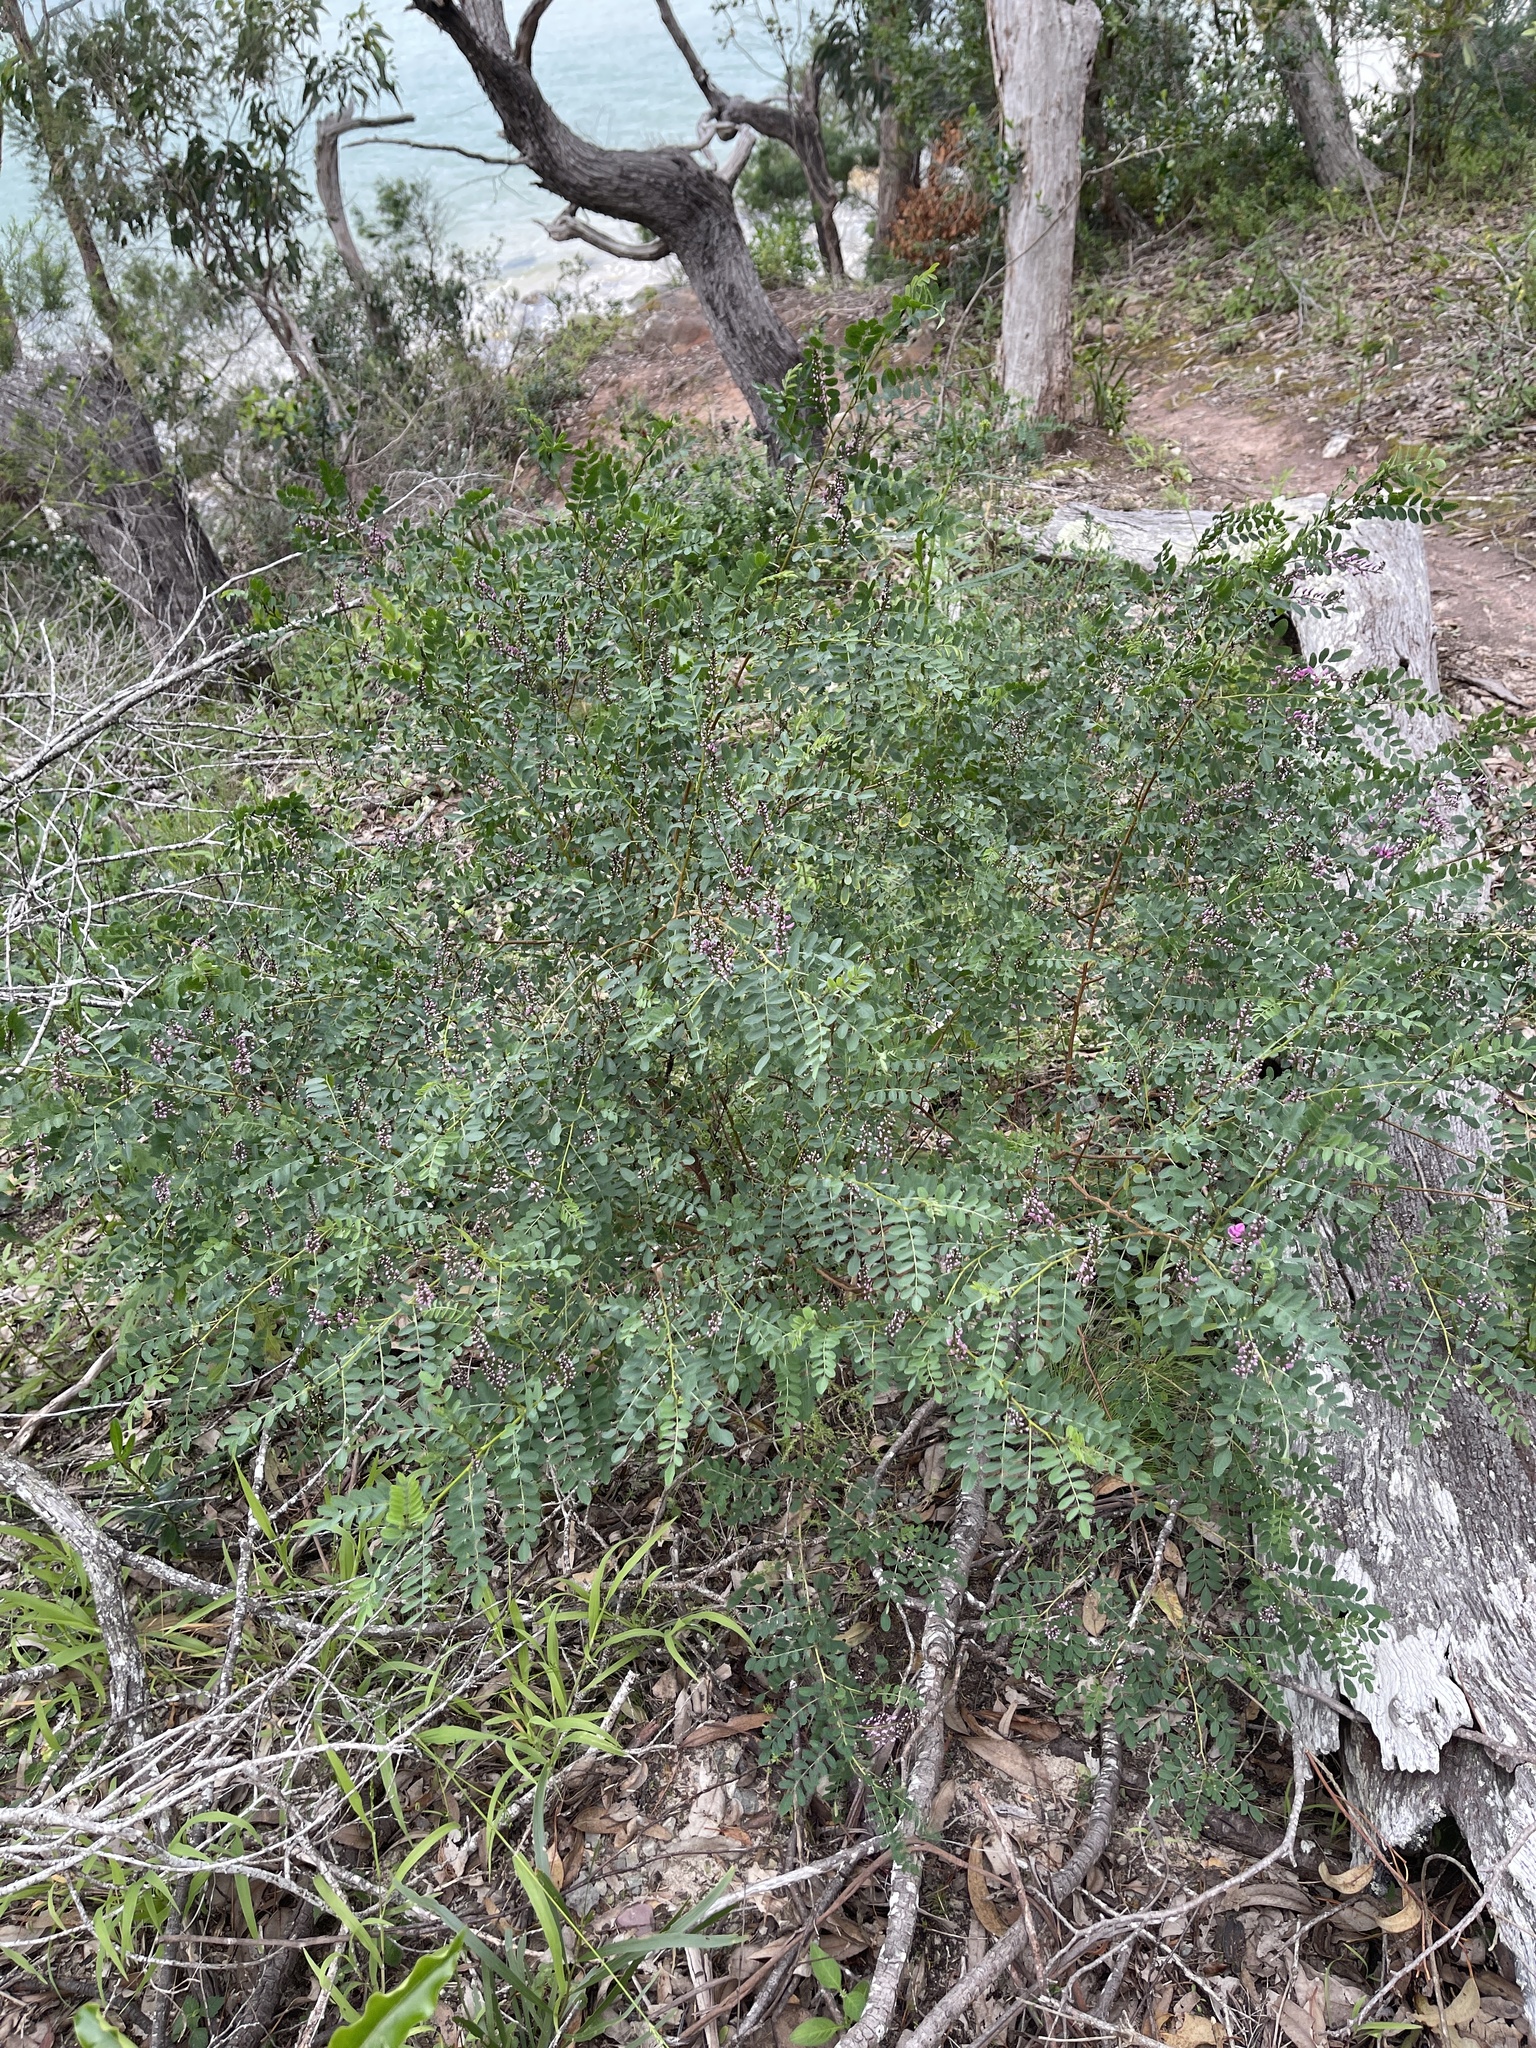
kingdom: Plantae
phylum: Tracheophyta
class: Magnoliopsida
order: Fabales
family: Fabaceae
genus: Indigofera
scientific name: Indigofera australis
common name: Australian indigo
